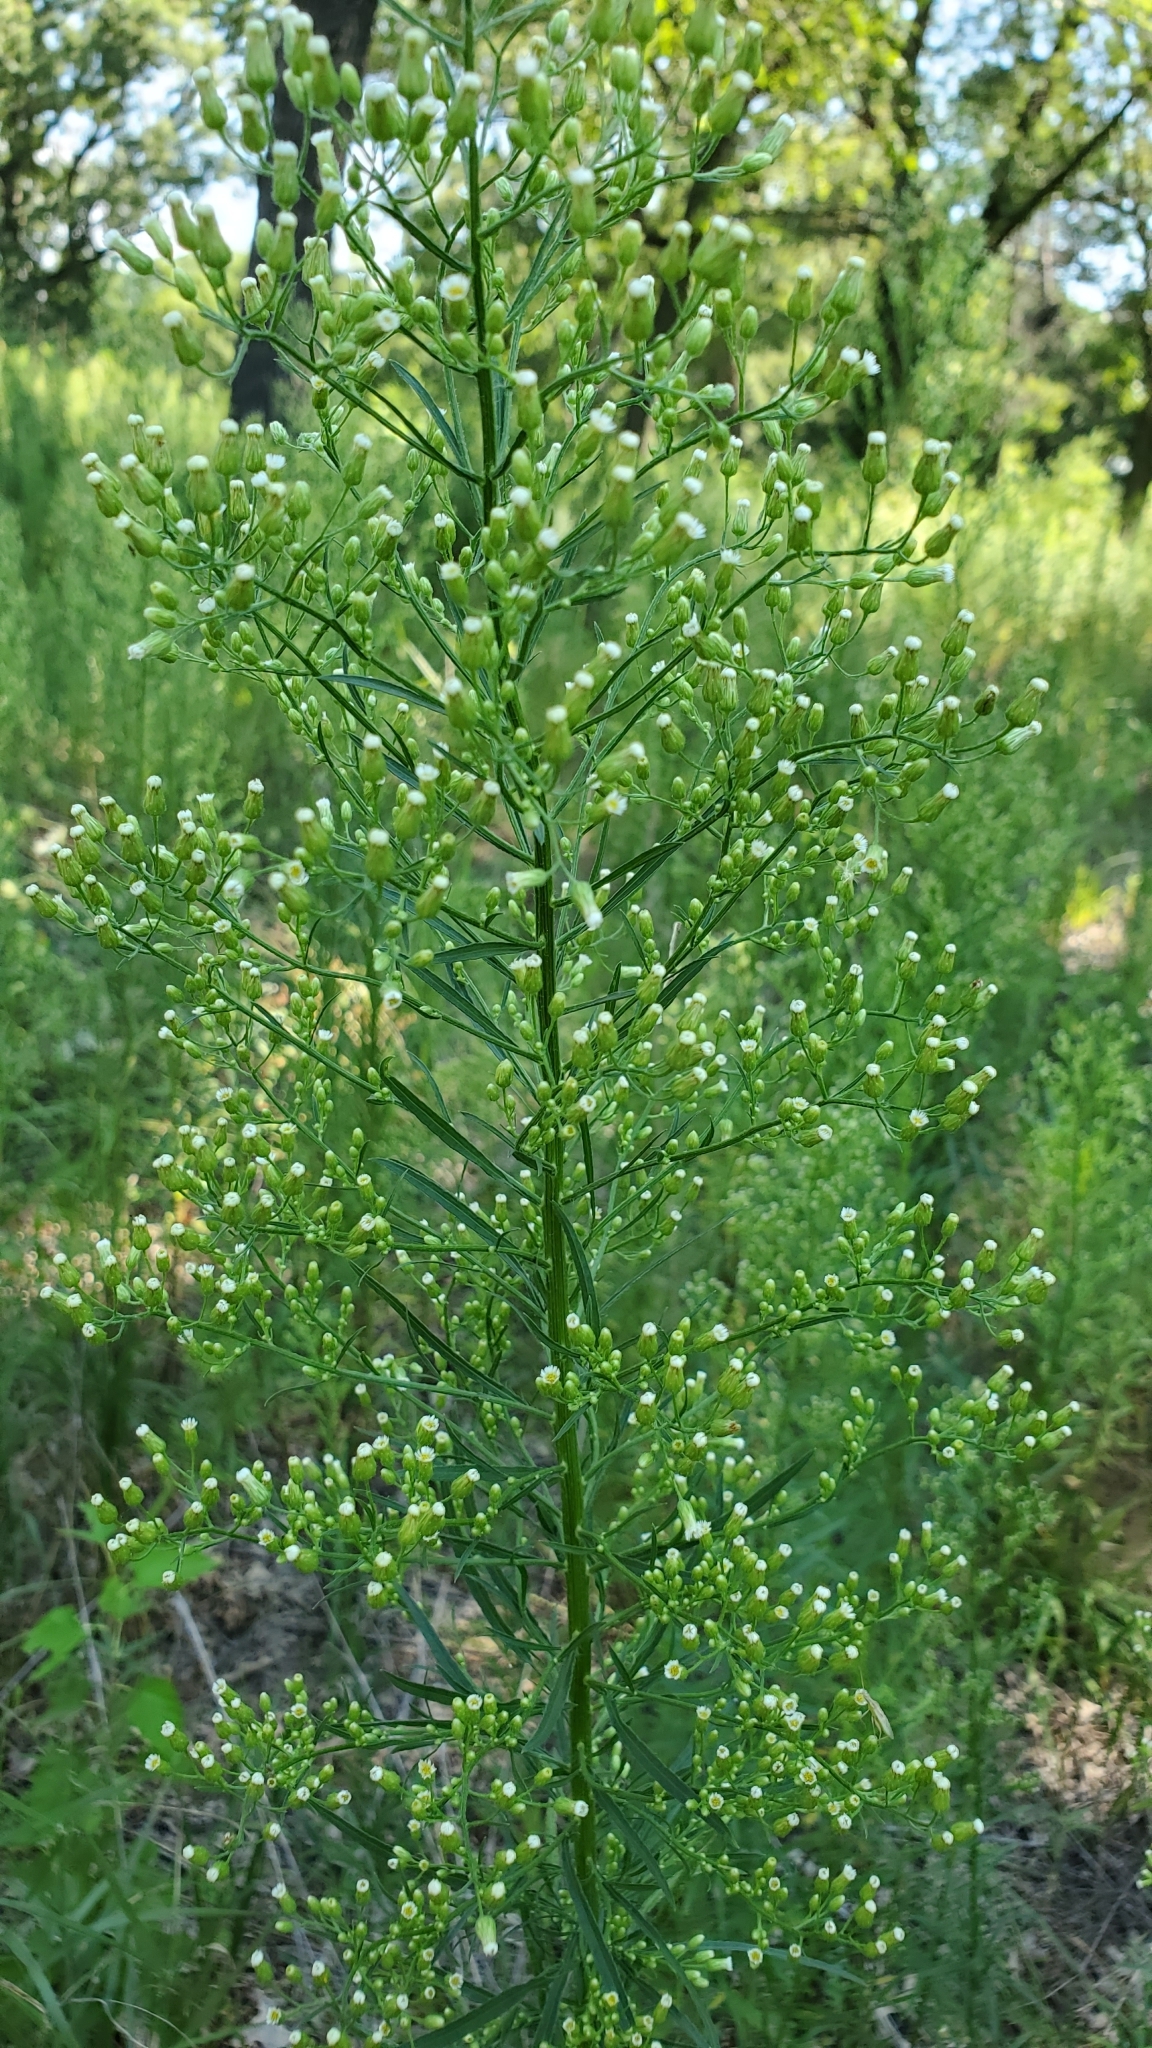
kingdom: Plantae
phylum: Tracheophyta
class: Magnoliopsida
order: Asterales
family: Asteraceae
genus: Erigeron
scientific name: Erigeron canadensis
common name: Canadian fleabane
